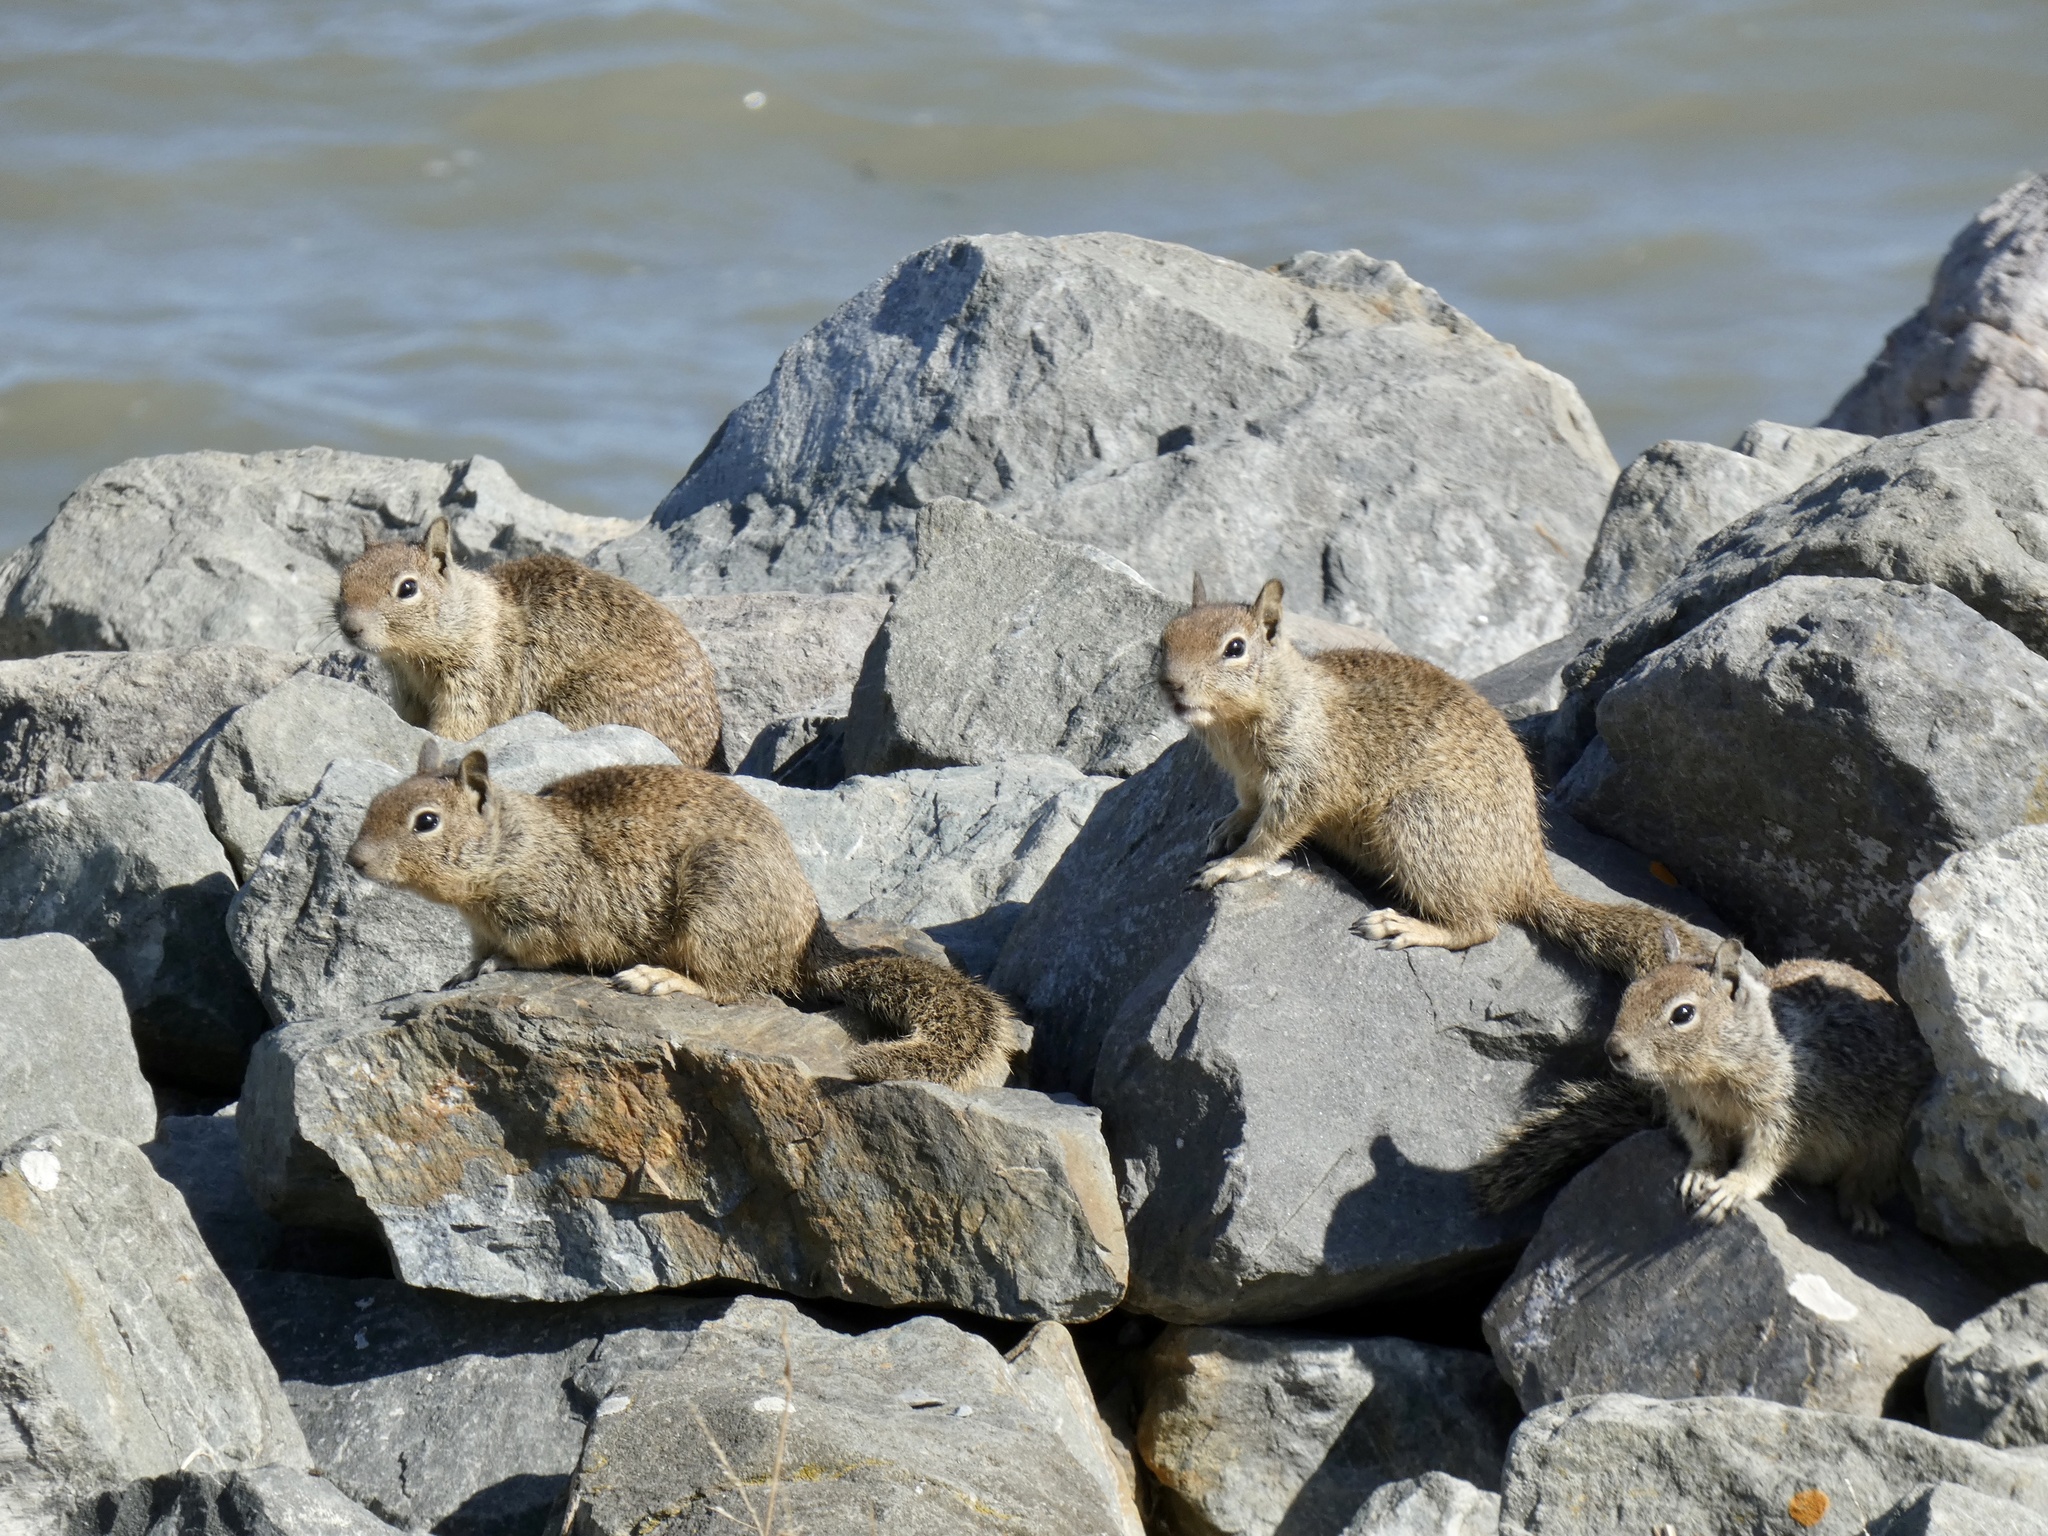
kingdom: Animalia
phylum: Chordata
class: Mammalia
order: Rodentia
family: Sciuridae
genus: Otospermophilus
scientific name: Otospermophilus beecheyi
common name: California ground squirrel
